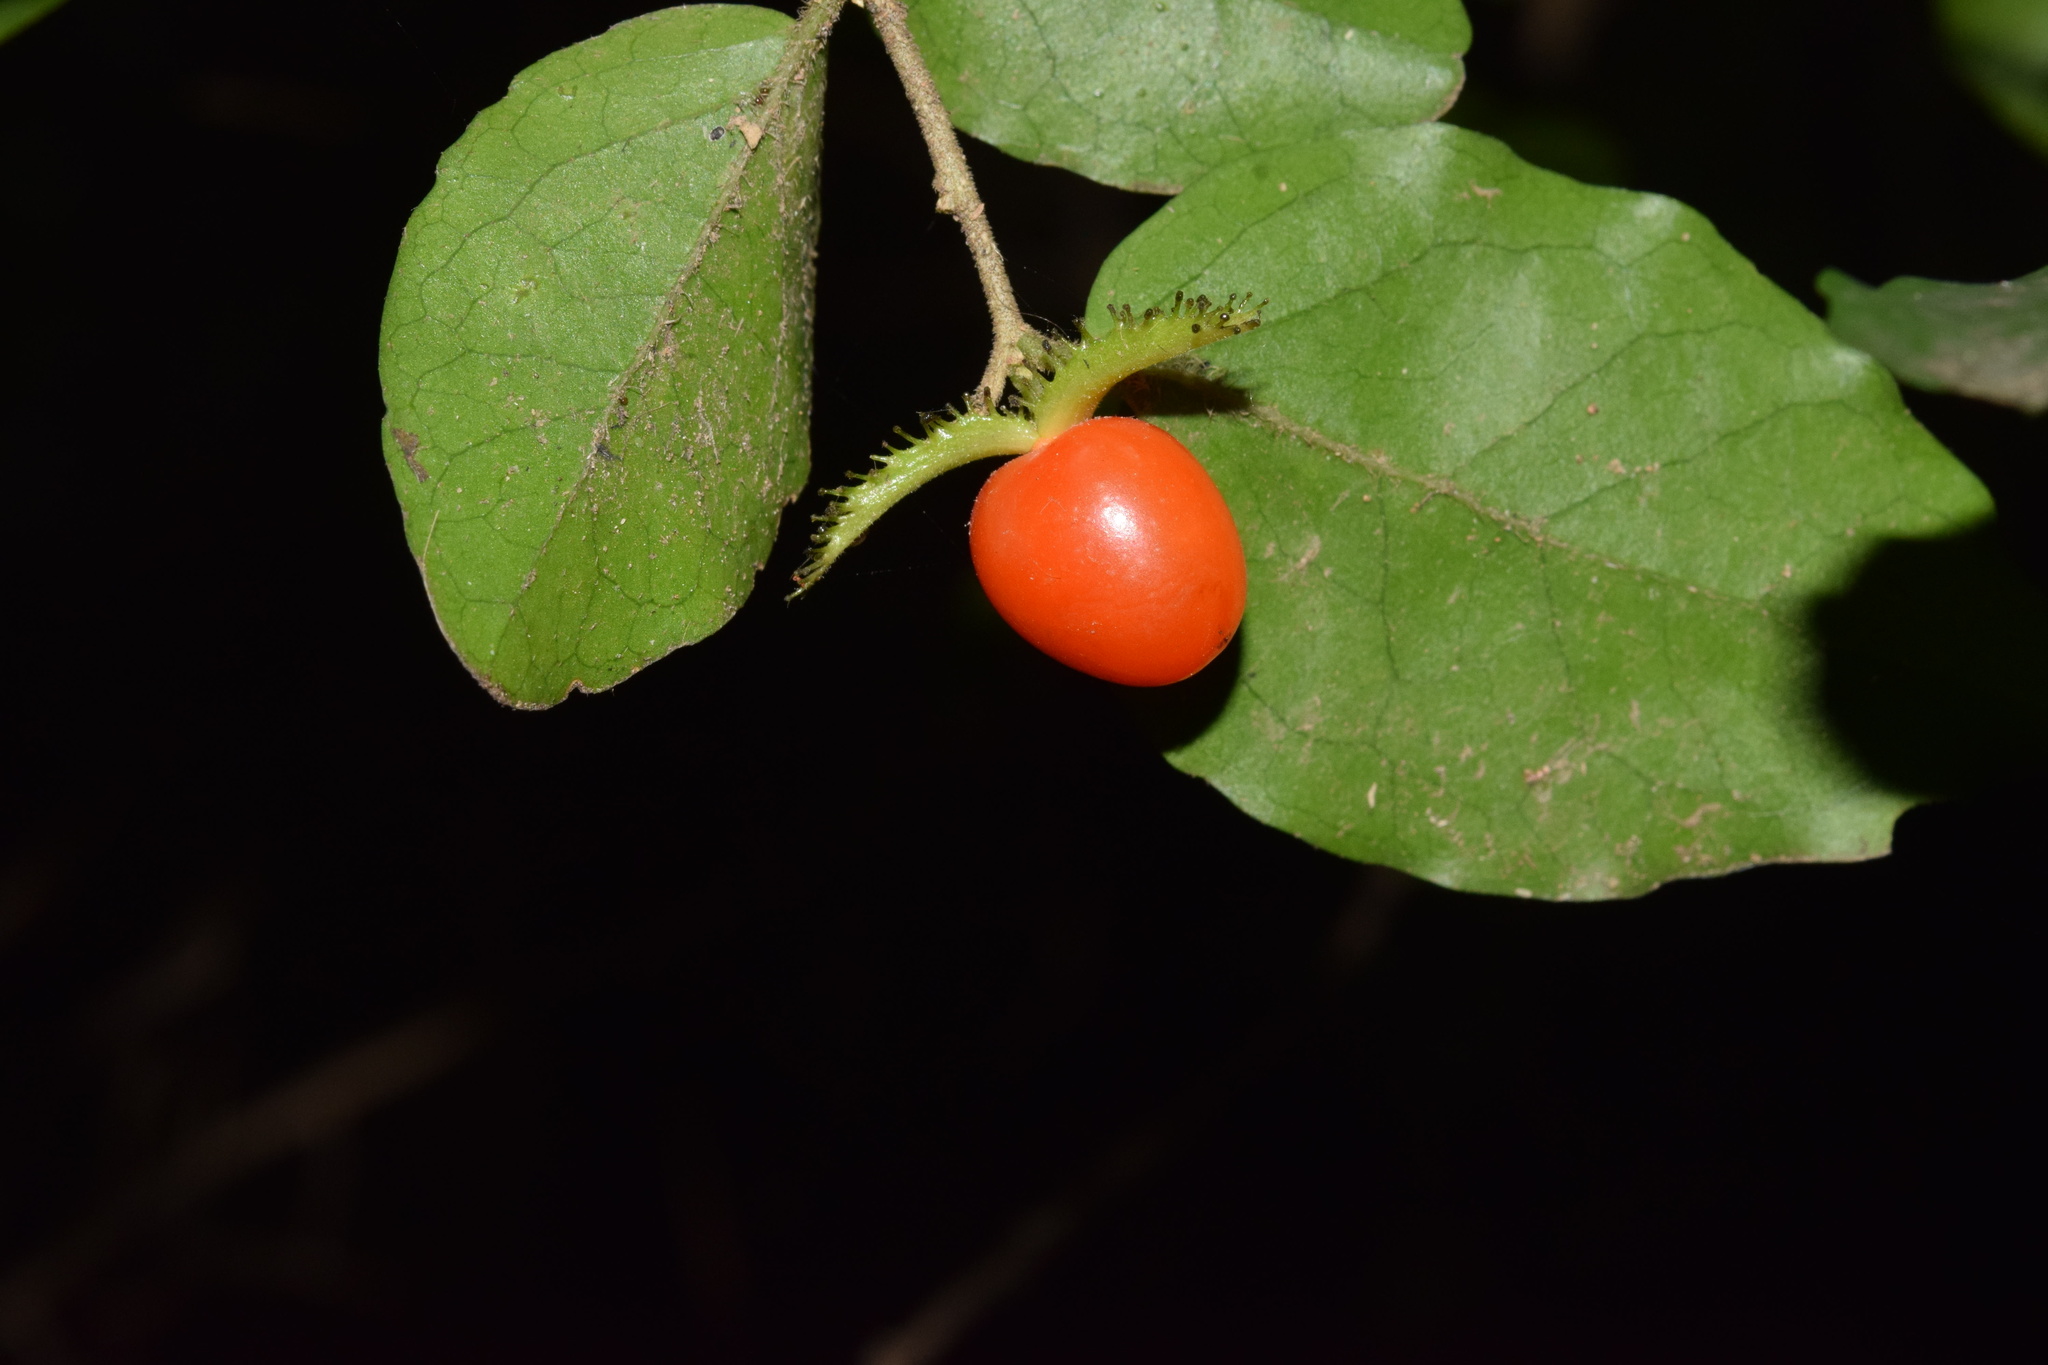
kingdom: Plantae
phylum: Tracheophyta
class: Magnoliopsida
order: Malpighiales
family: Salicaceae
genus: Dovyalis
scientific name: Dovyalis rhamnoides
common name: Sourberry
